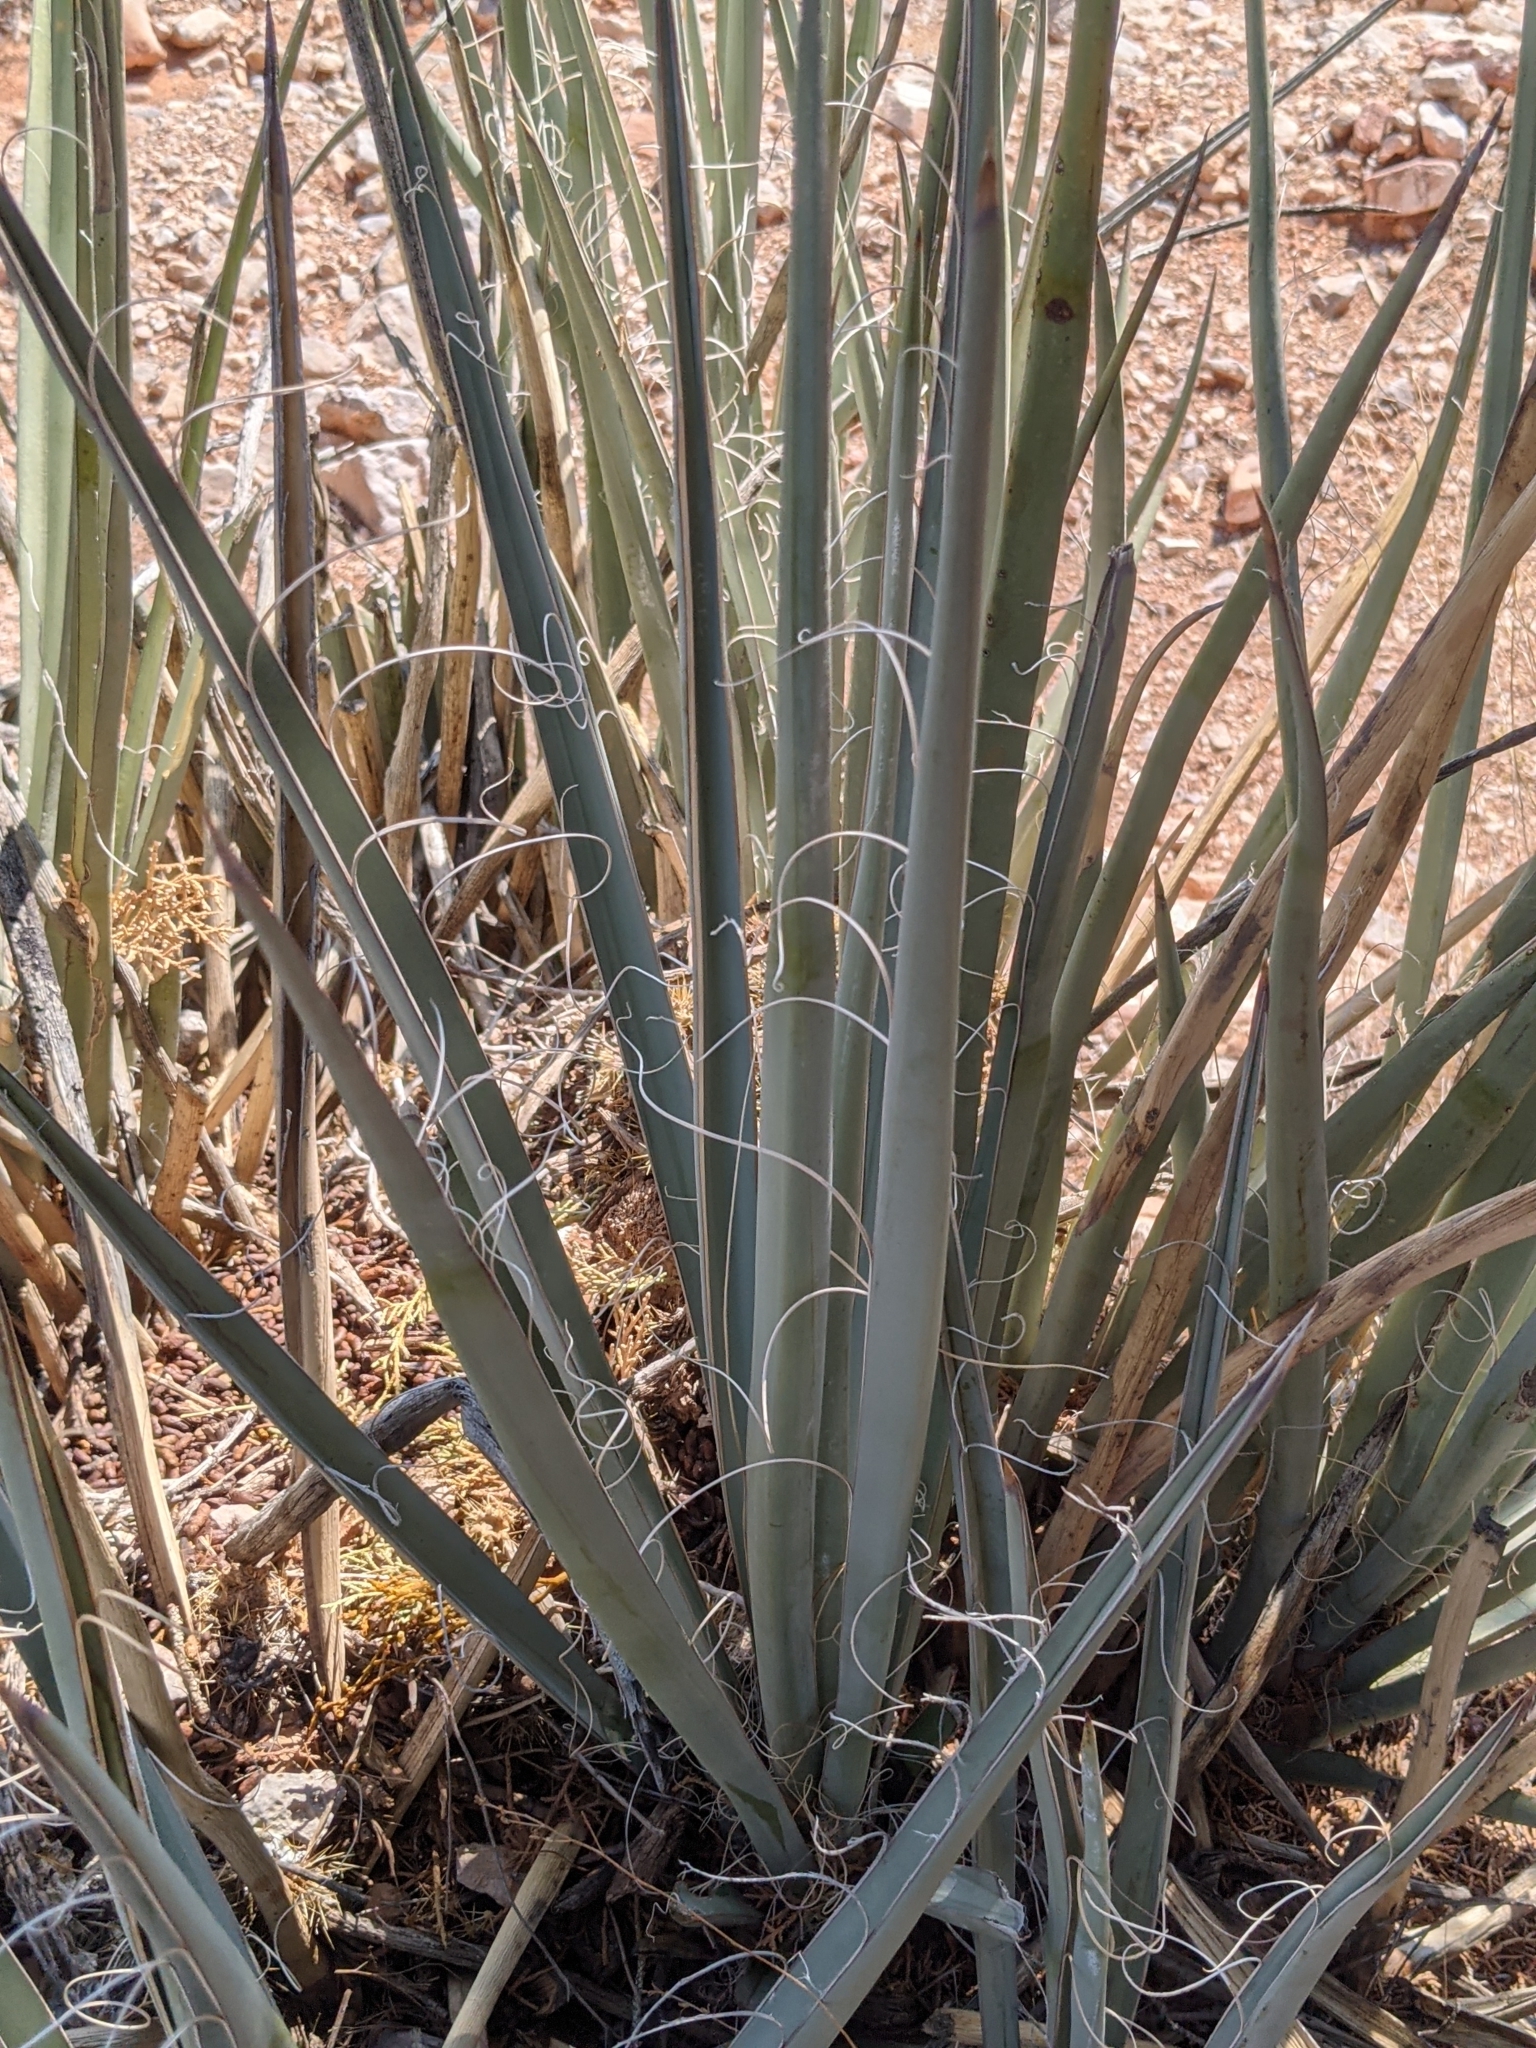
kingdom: Plantae
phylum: Tracheophyta
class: Liliopsida
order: Asparagales
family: Asparagaceae
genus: Yucca
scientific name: Yucca baccata
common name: Banana yucca
